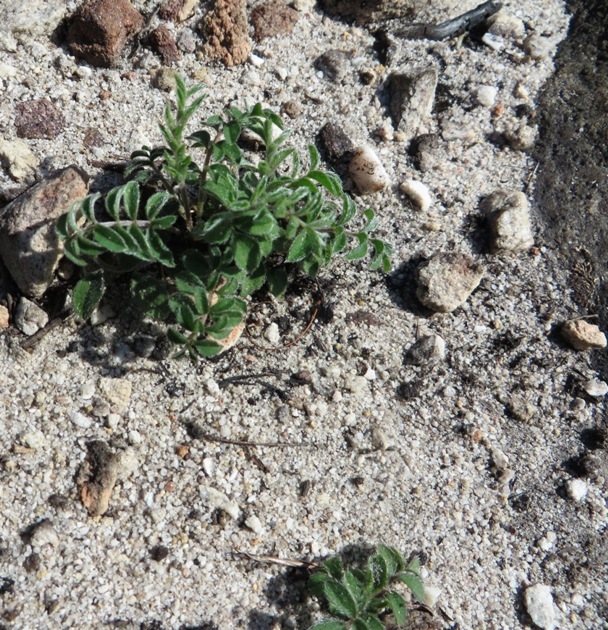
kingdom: Plantae
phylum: Tracheophyta
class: Magnoliopsida
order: Geraniales
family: Geraniaceae
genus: Pelargonium
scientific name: Pelargonium pinnatum
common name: Pinnated pelargonium
